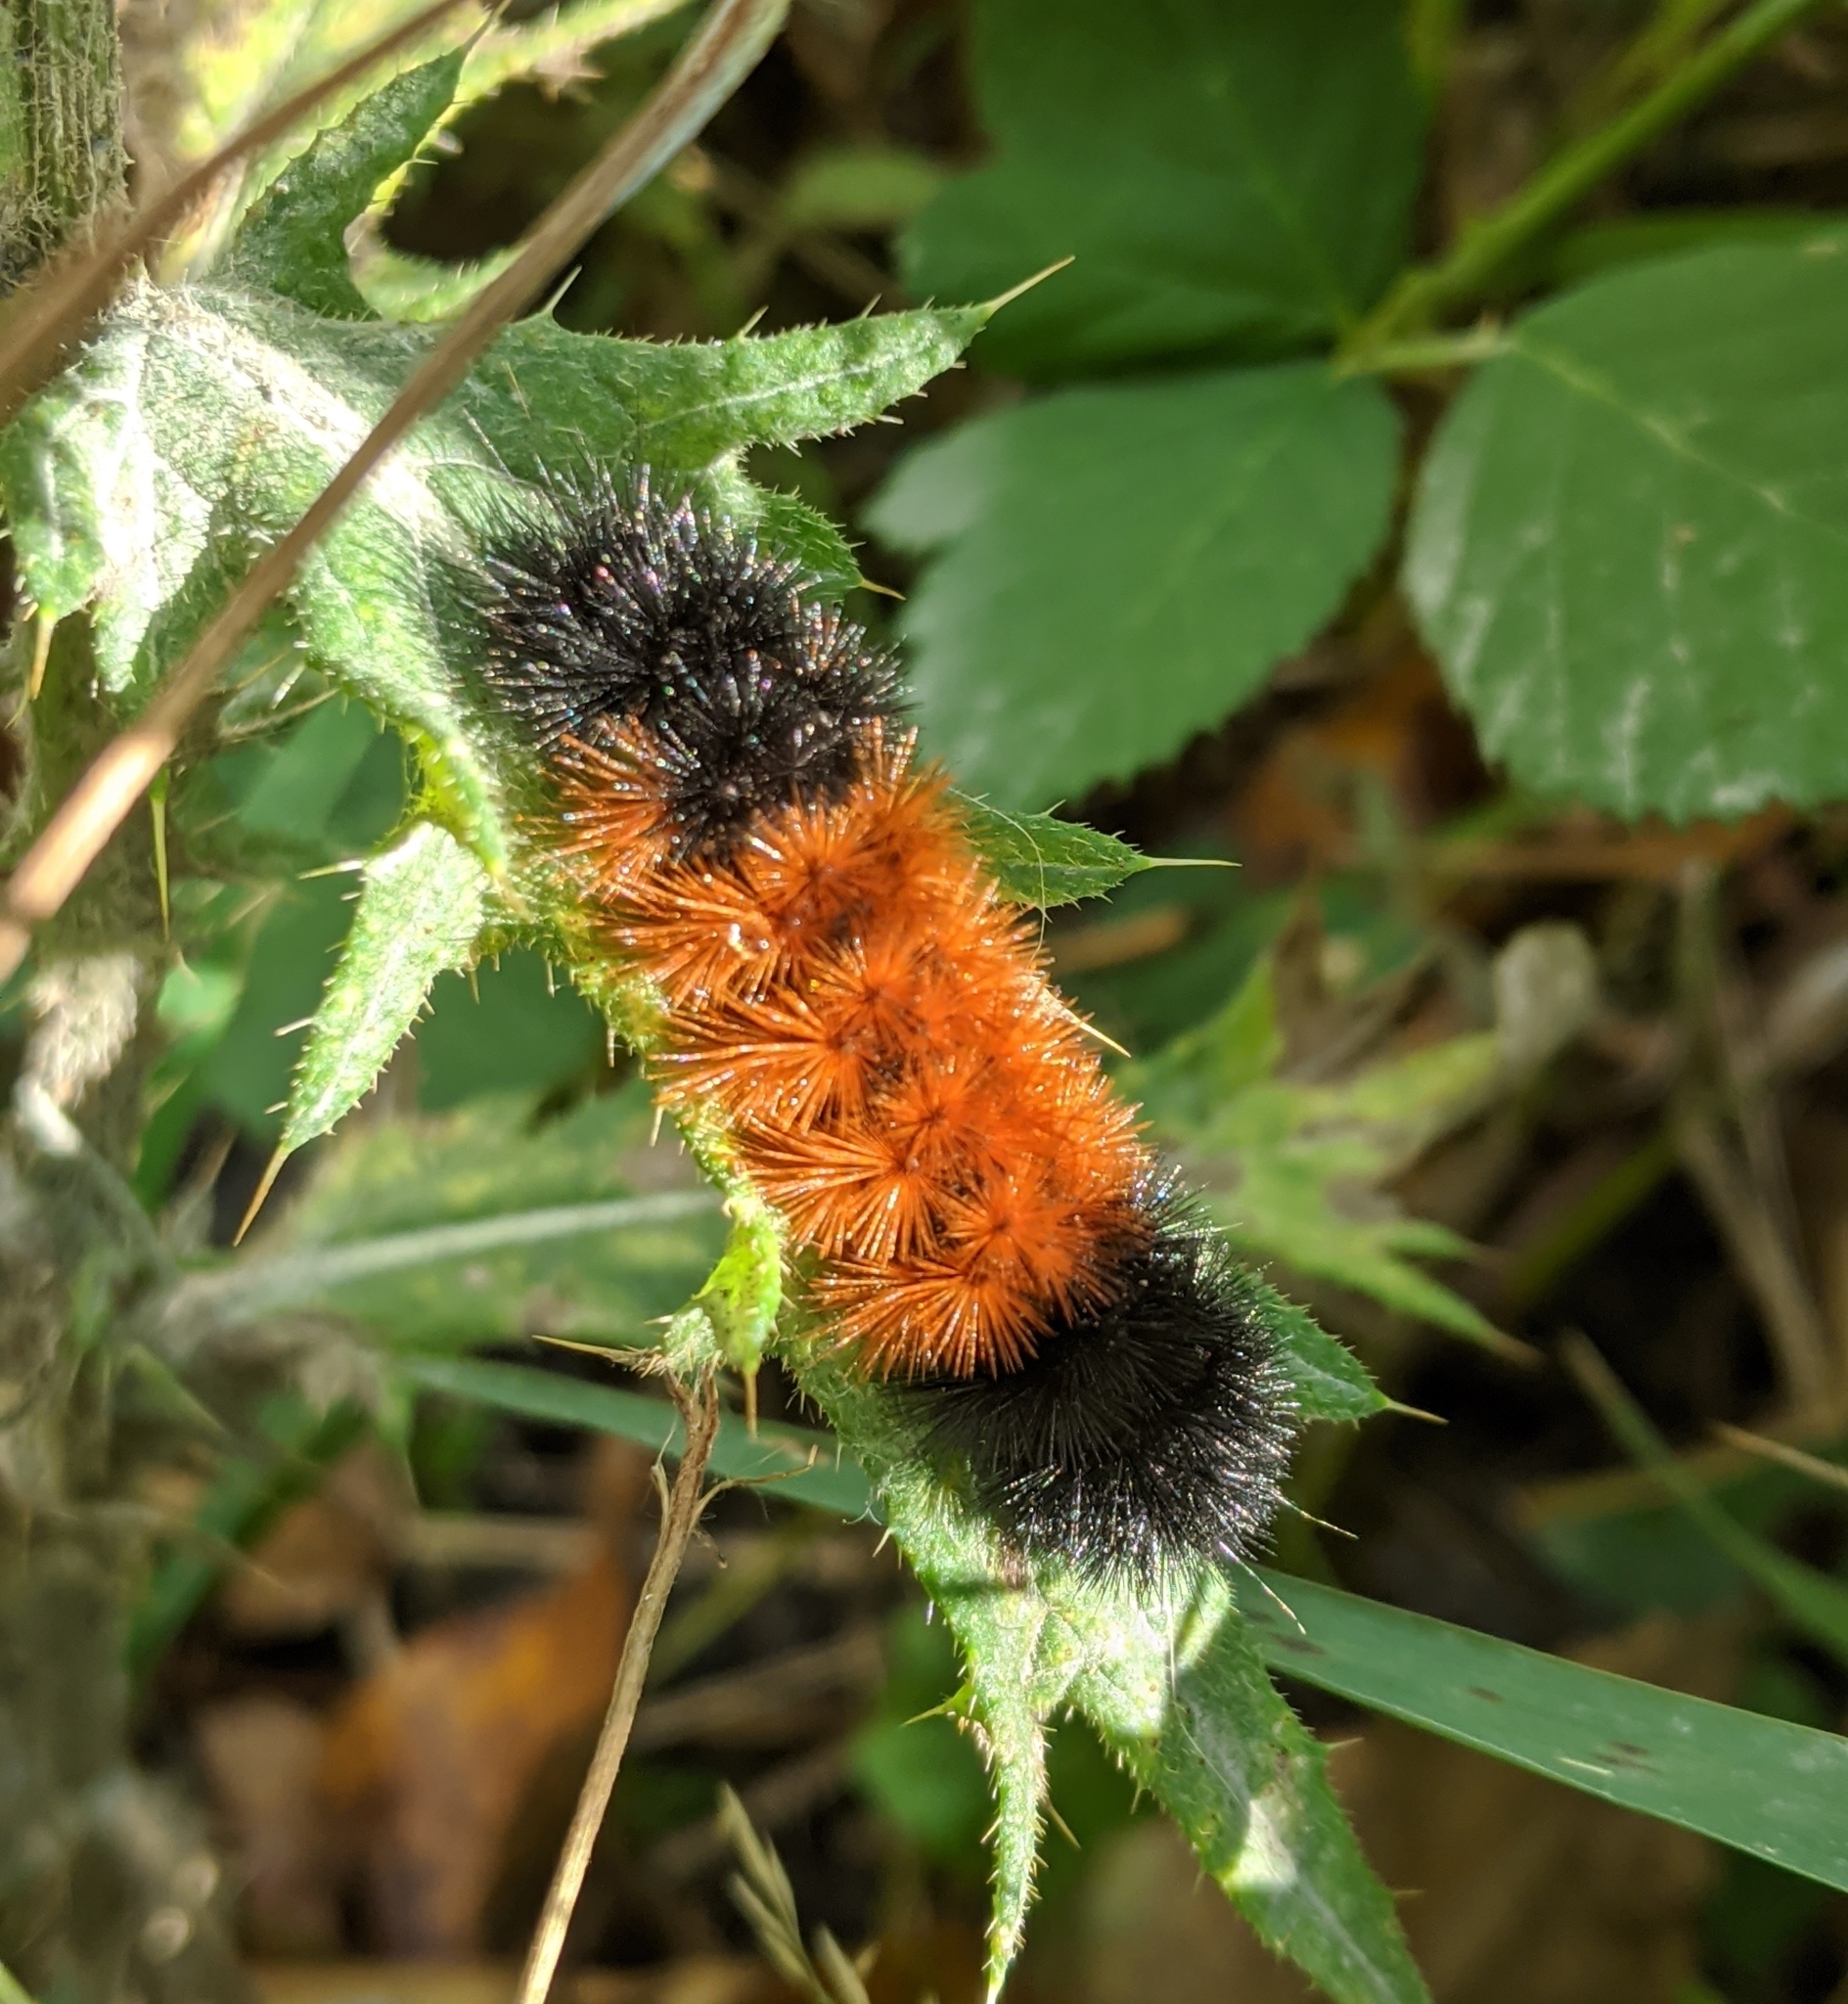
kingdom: Animalia
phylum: Arthropoda
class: Insecta
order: Lepidoptera
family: Erebidae
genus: Pyrrharctia
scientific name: Pyrrharctia isabella
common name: Isabella tiger moth
